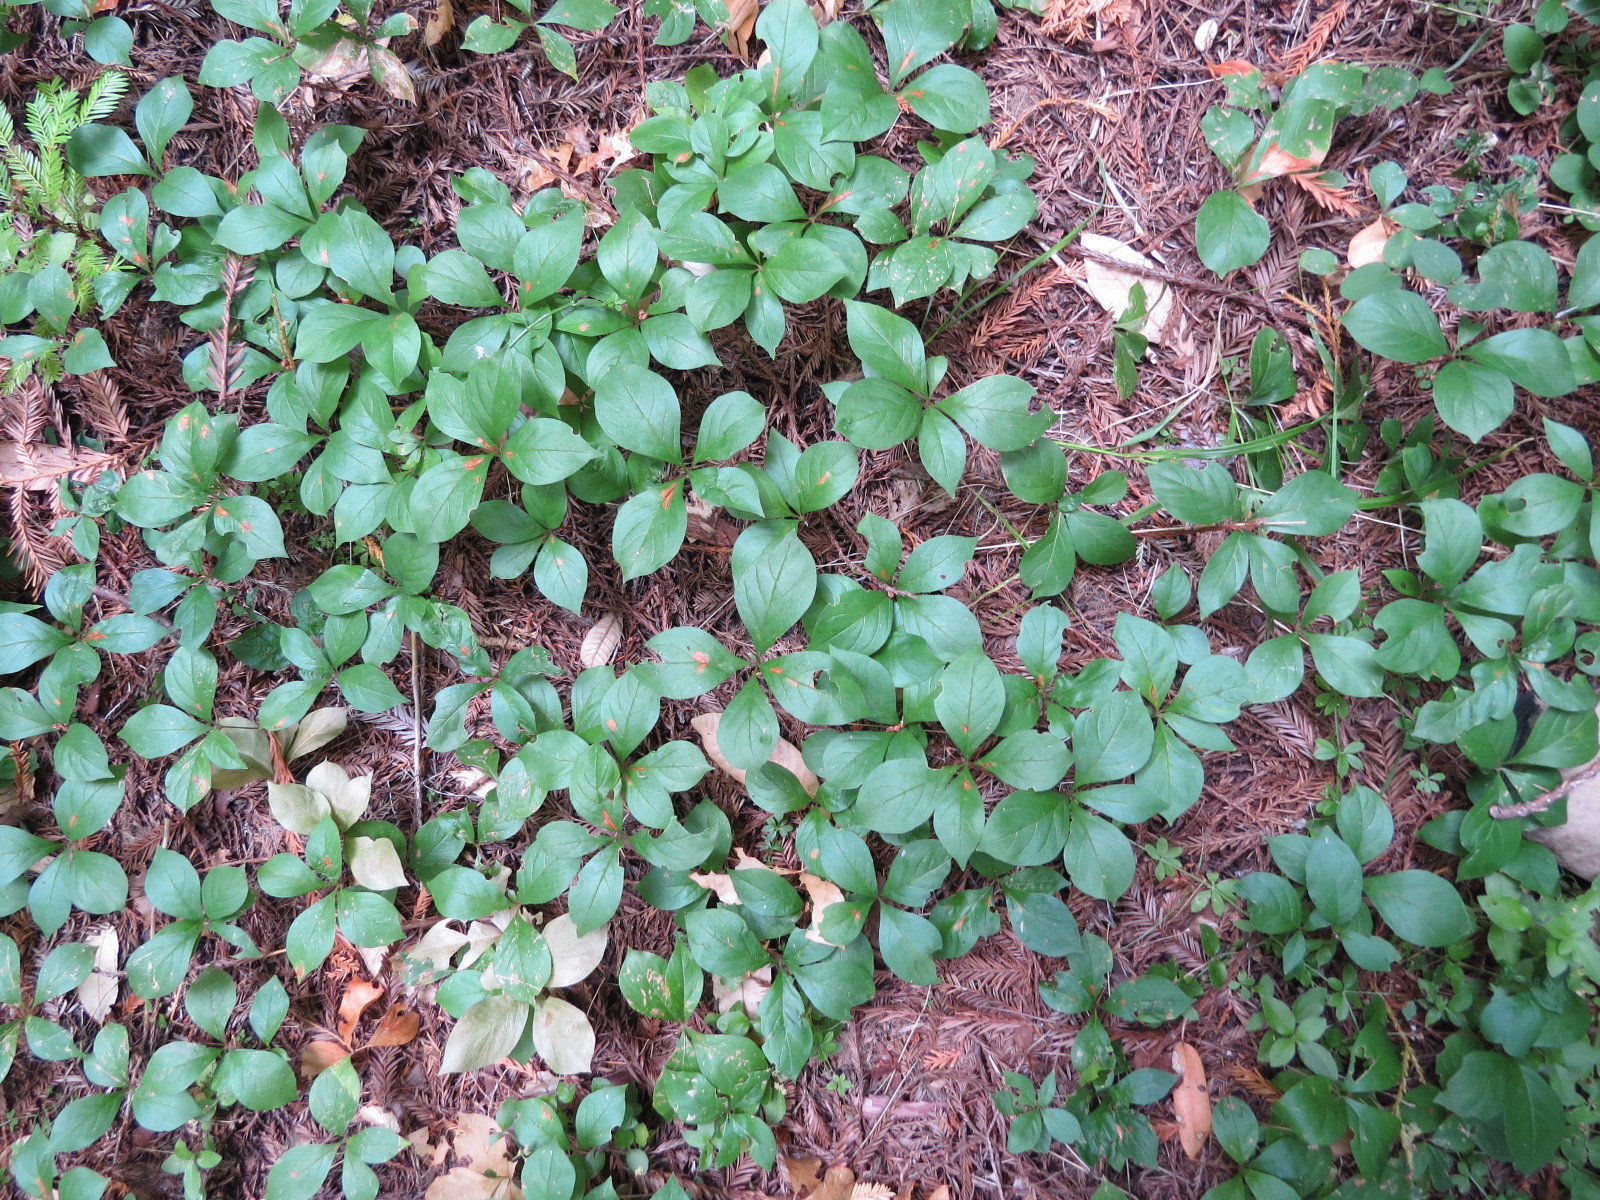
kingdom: Plantae
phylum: Tracheophyta
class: Magnoliopsida
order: Ericales
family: Primulaceae
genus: Lysimachia
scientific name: Lysimachia latifolia
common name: Pacific starflower
